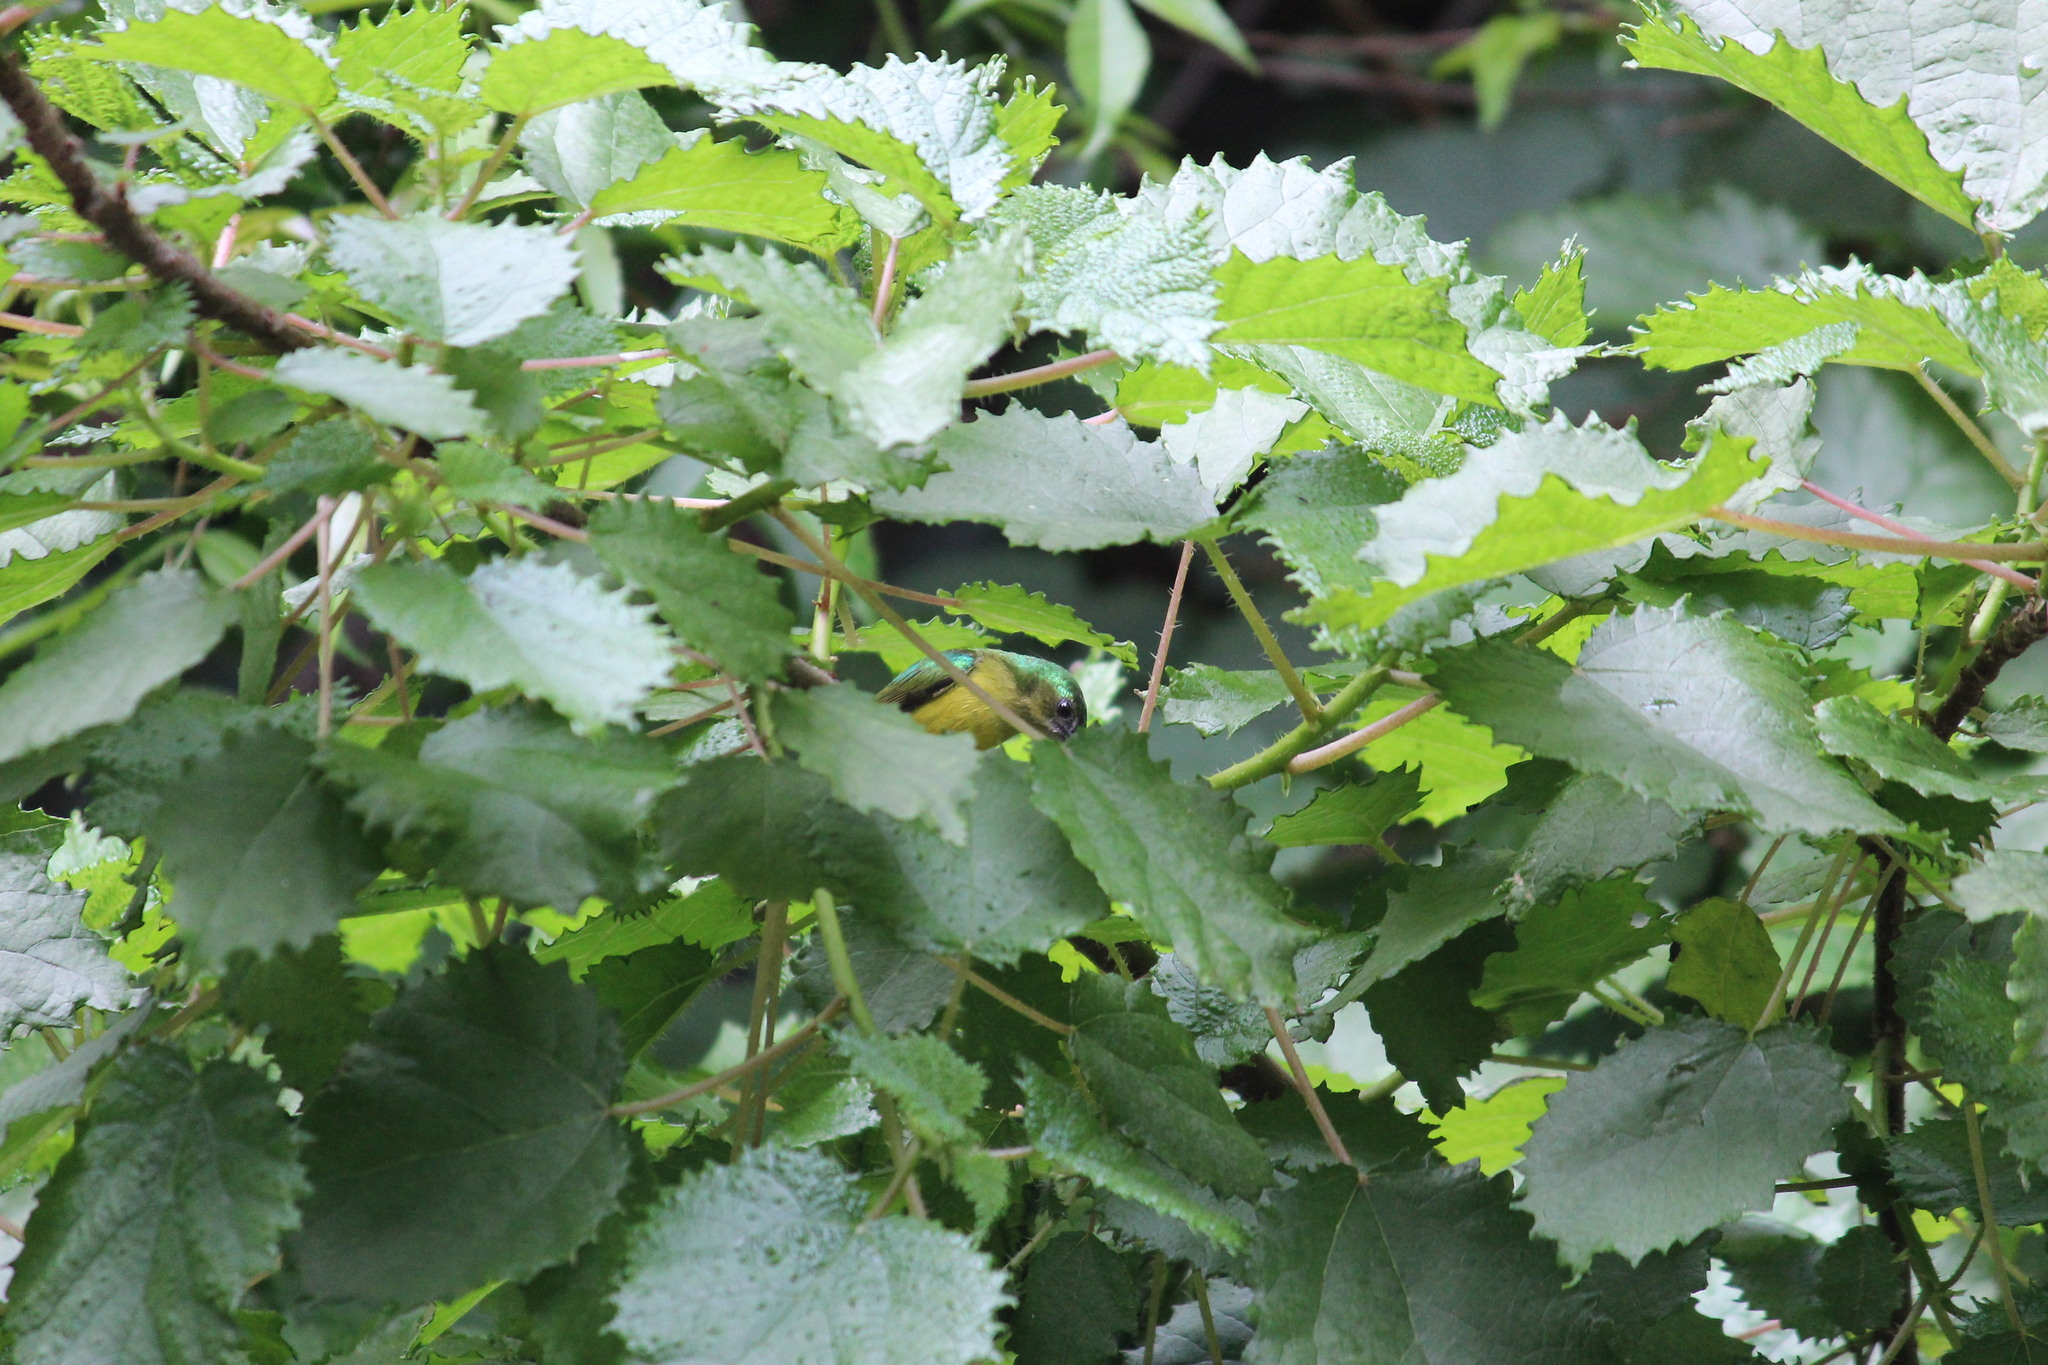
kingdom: Animalia
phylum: Chordata
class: Aves
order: Passeriformes
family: Nectariniidae
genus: Hedydipna
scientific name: Hedydipna collaris
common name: Collared sunbird
